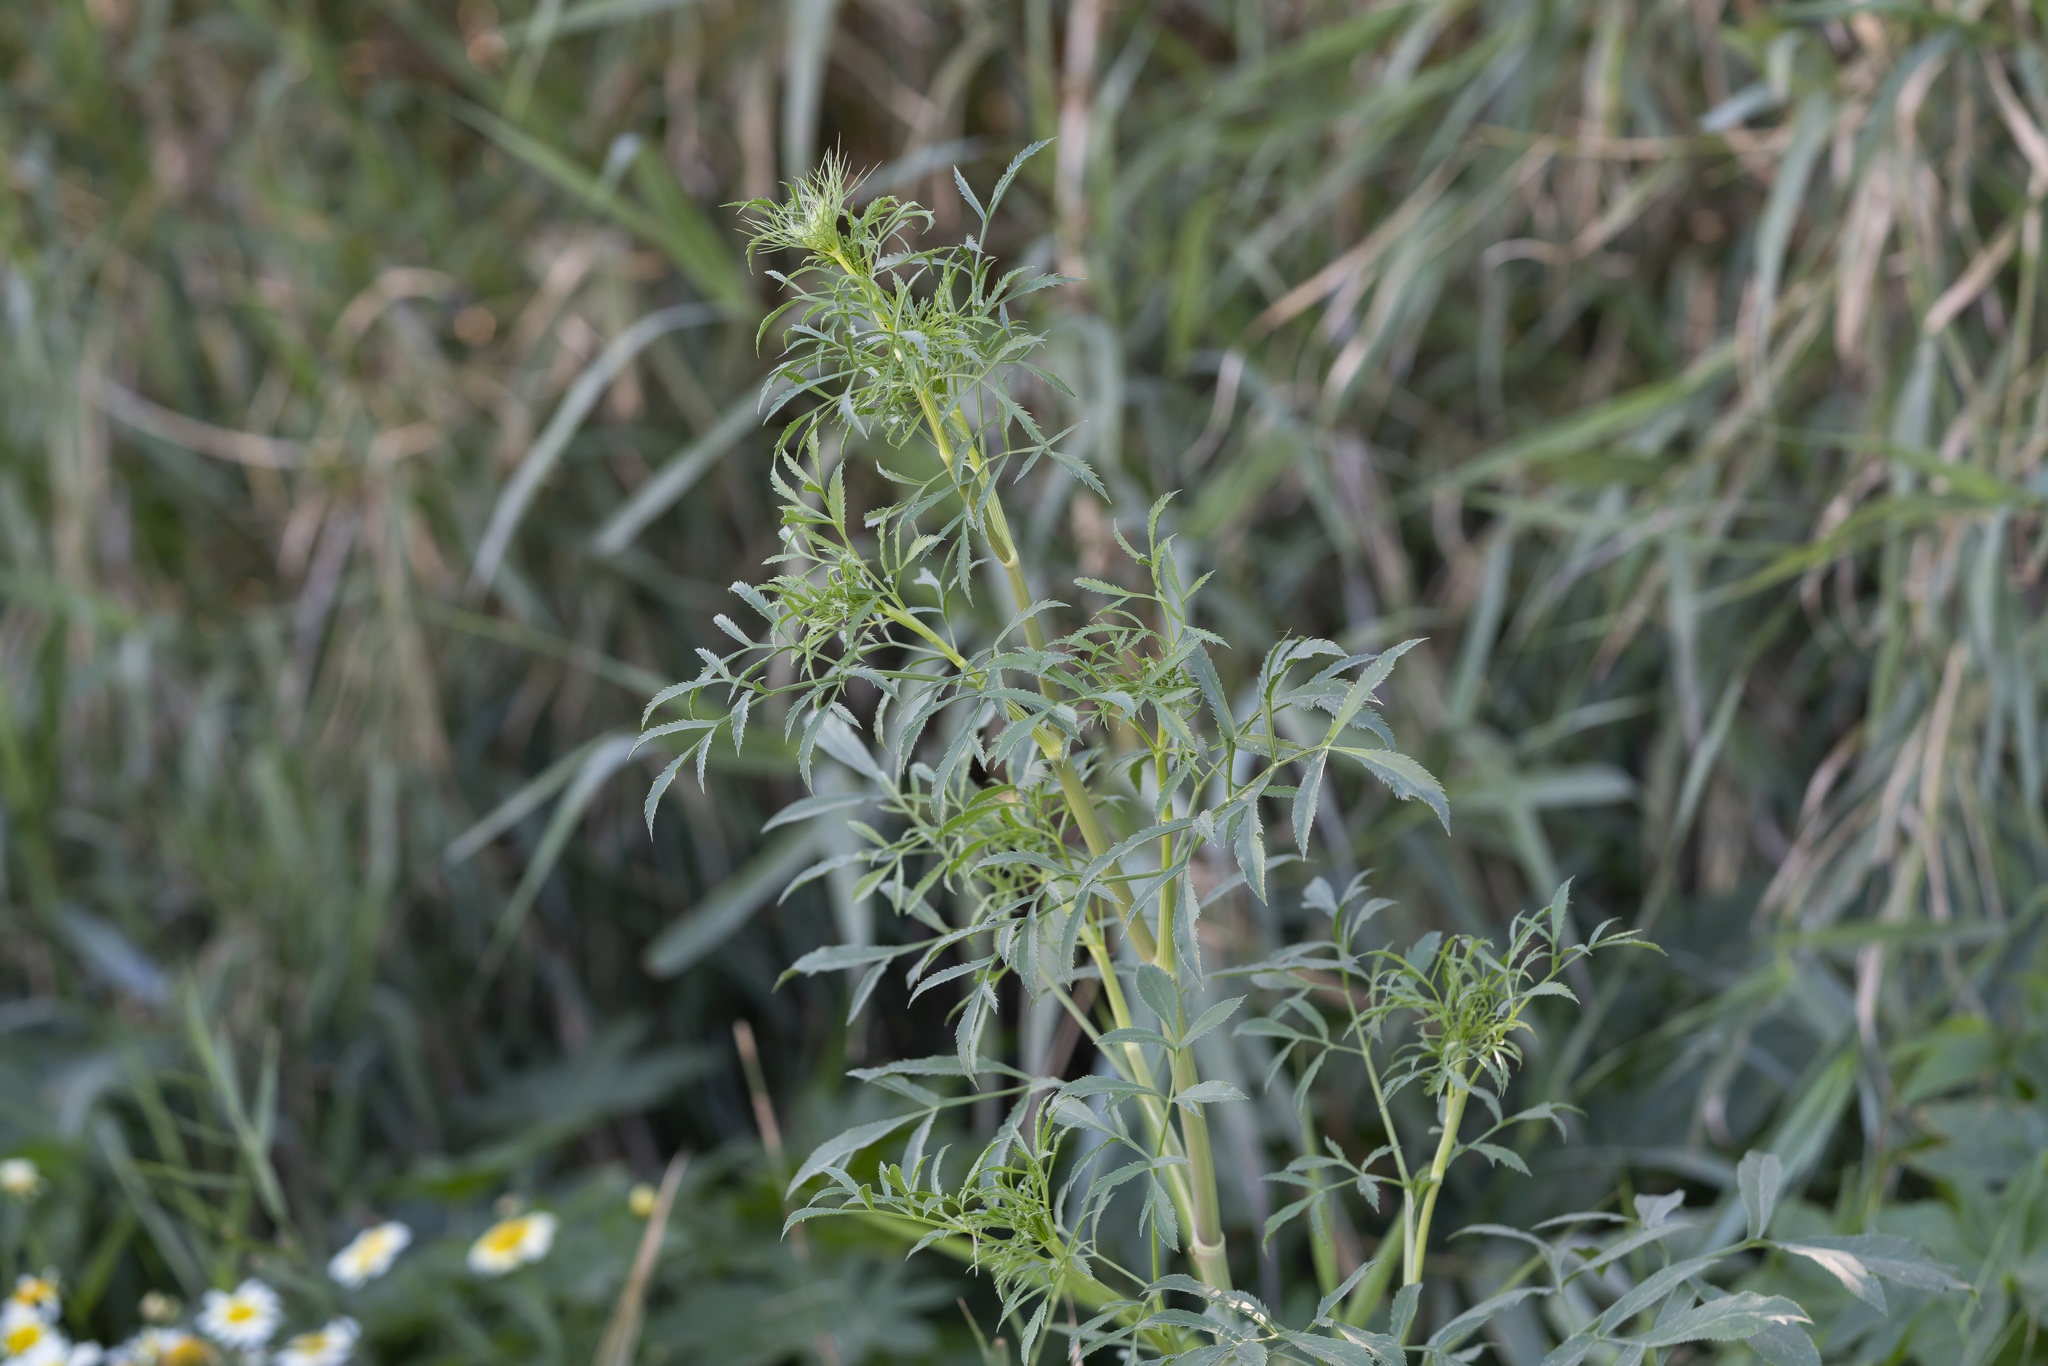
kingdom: Plantae
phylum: Tracheophyta
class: Magnoliopsida
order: Apiales
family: Apiaceae
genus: Ammi
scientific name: Ammi majus
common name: Bullwort
